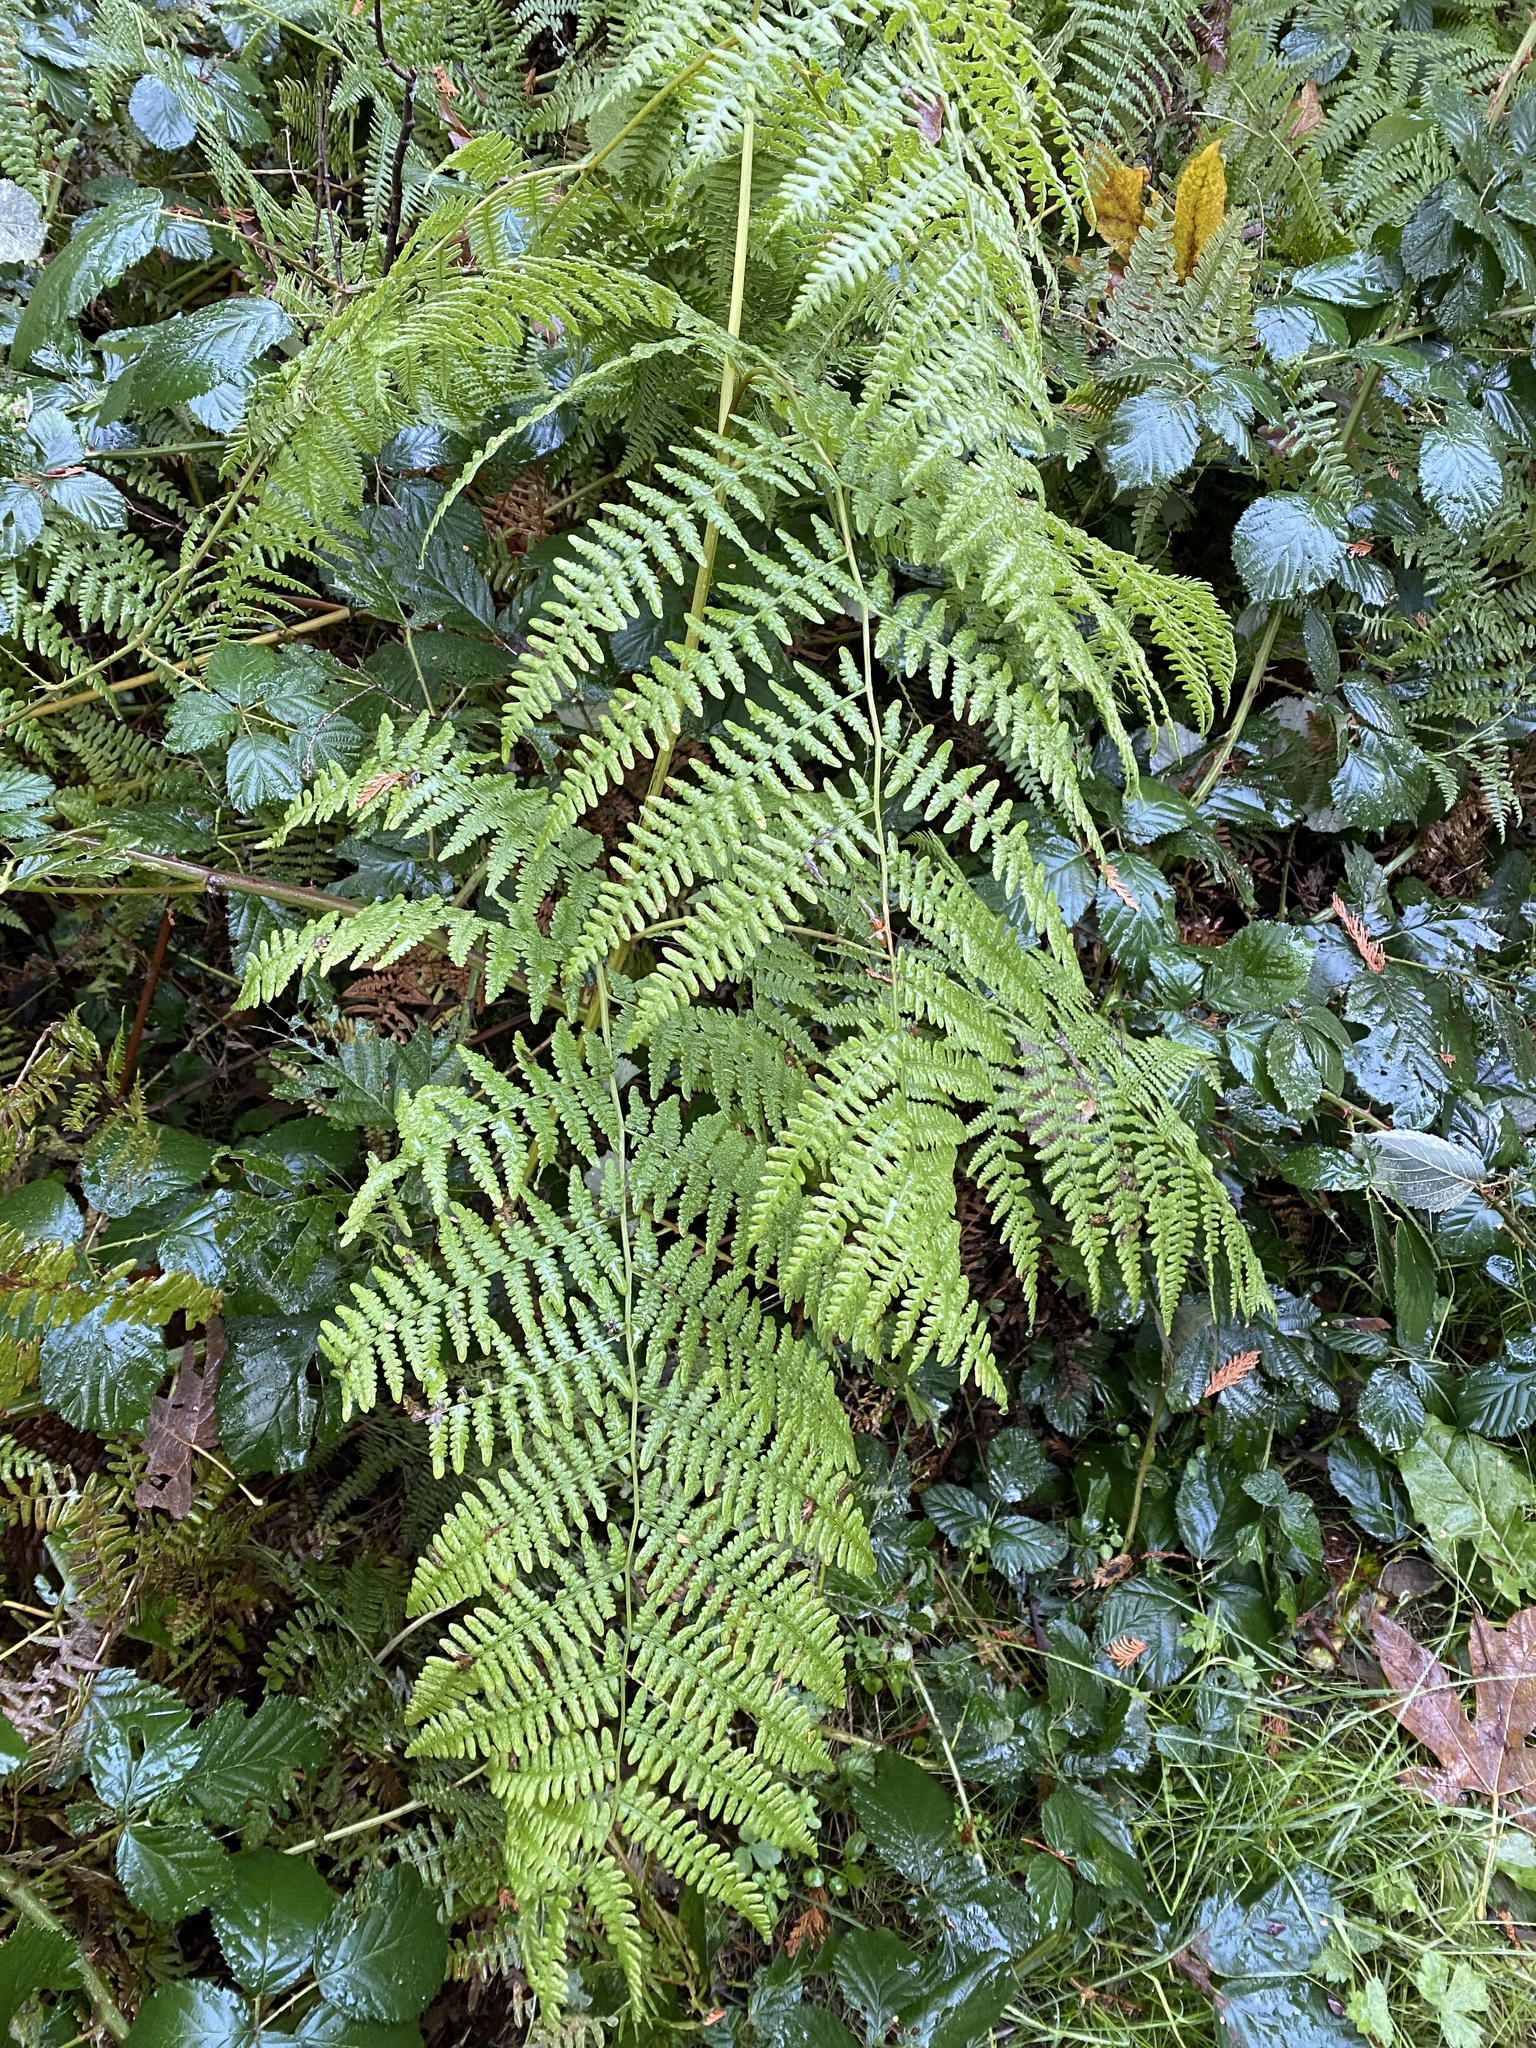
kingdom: Plantae
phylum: Tracheophyta
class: Polypodiopsida
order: Polypodiales
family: Dennstaedtiaceae
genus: Pteridium
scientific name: Pteridium aquilinum
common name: Bracken
